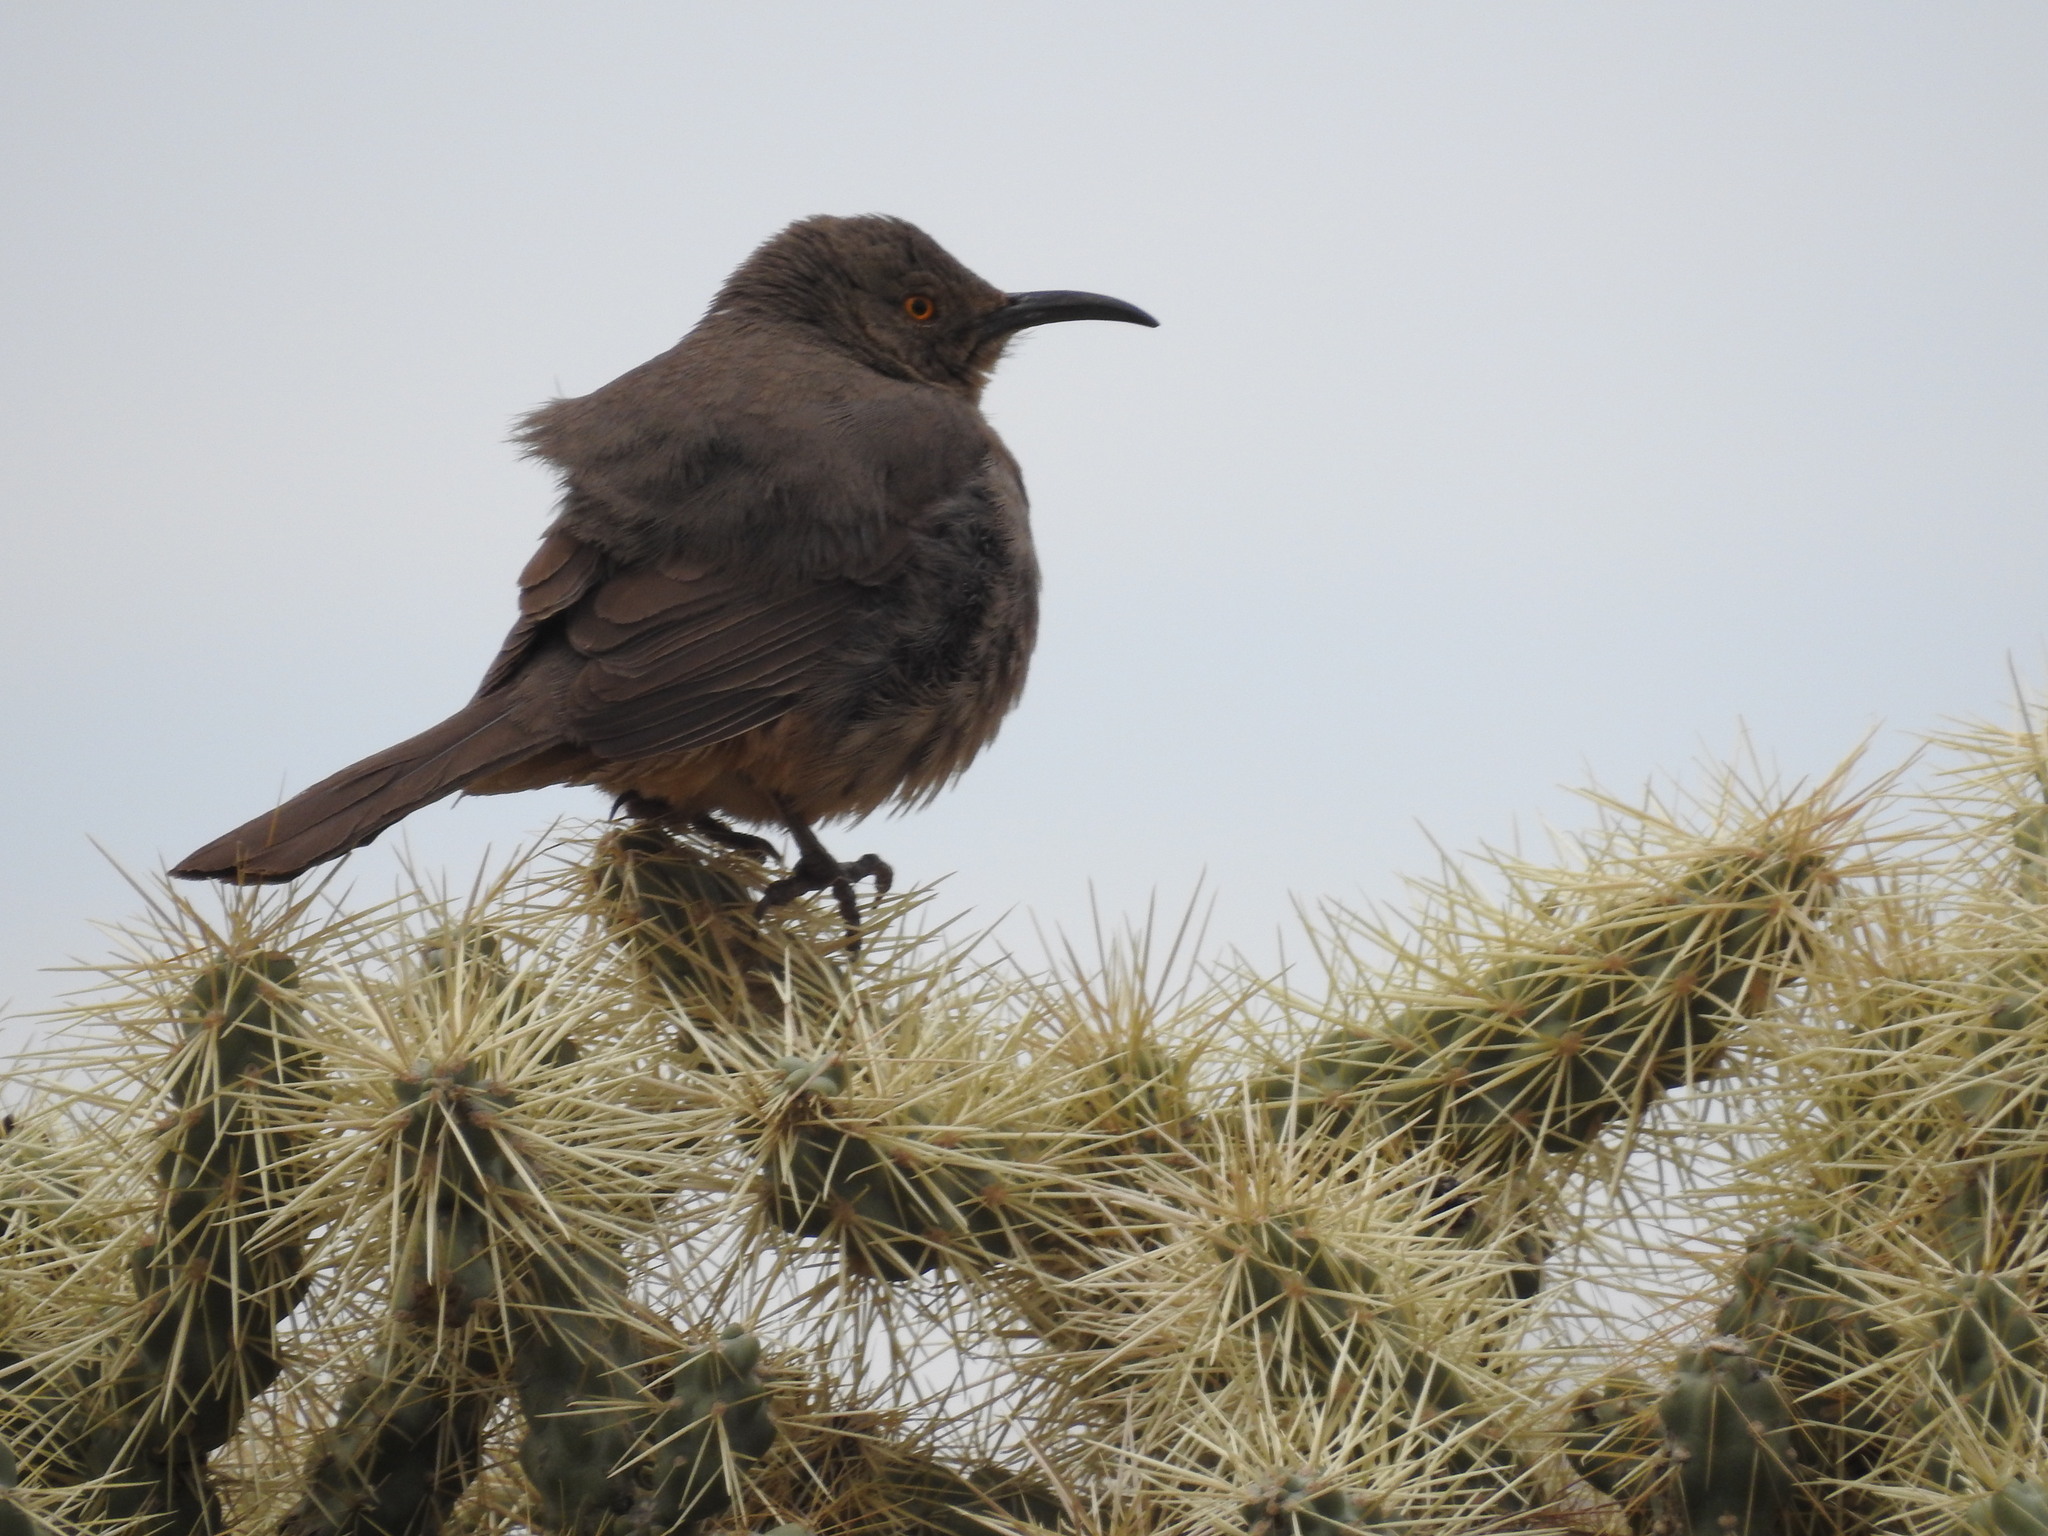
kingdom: Animalia
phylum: Chordata
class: Aves
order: Passeriformes
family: Mimidae
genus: Toxostoma
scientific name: Toxostoma curvirostre
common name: Curve-billed thrasher
